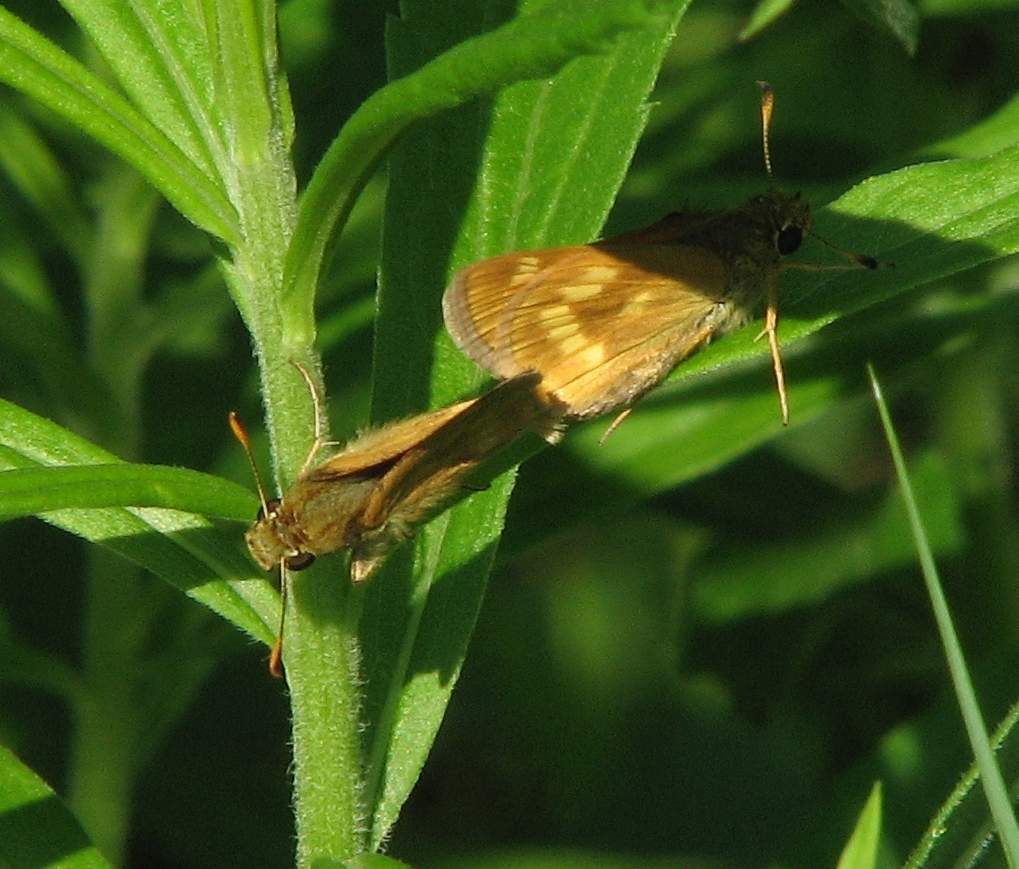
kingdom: Animalia
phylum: Arthropoda
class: Insecta
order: Lepidoptera
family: Hesperiidae
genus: Polites
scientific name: Polites mystic
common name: Long dash
